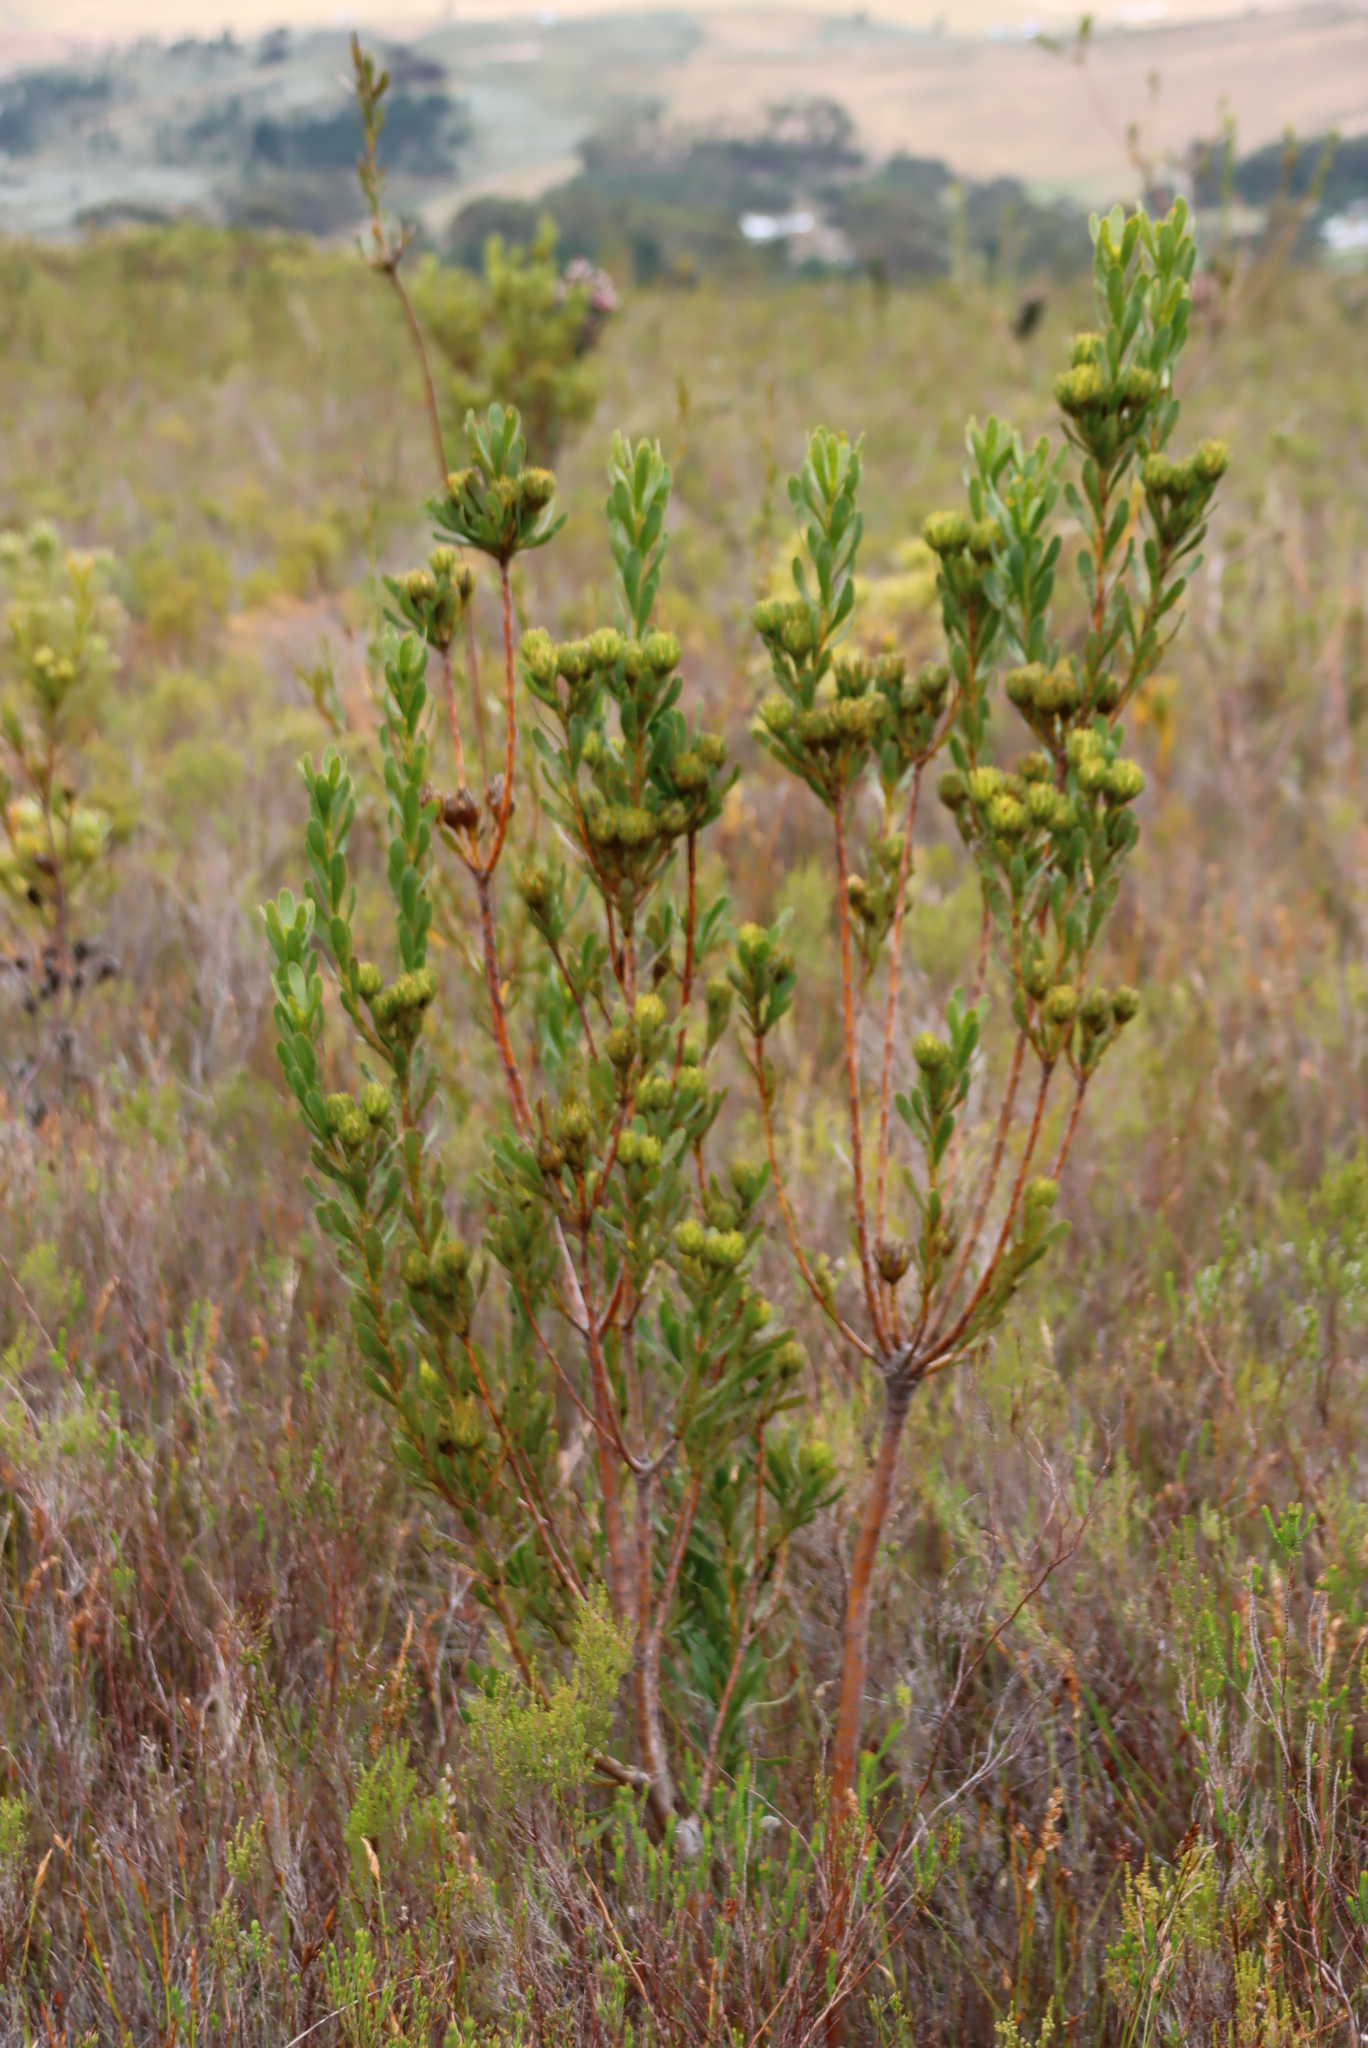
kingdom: Plantae
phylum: Tracheophyta
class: Magnoliopsida
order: Proteales
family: Proteaceae
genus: Aulax
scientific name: Aulax umbellata
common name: Broad-leaf featherbush
